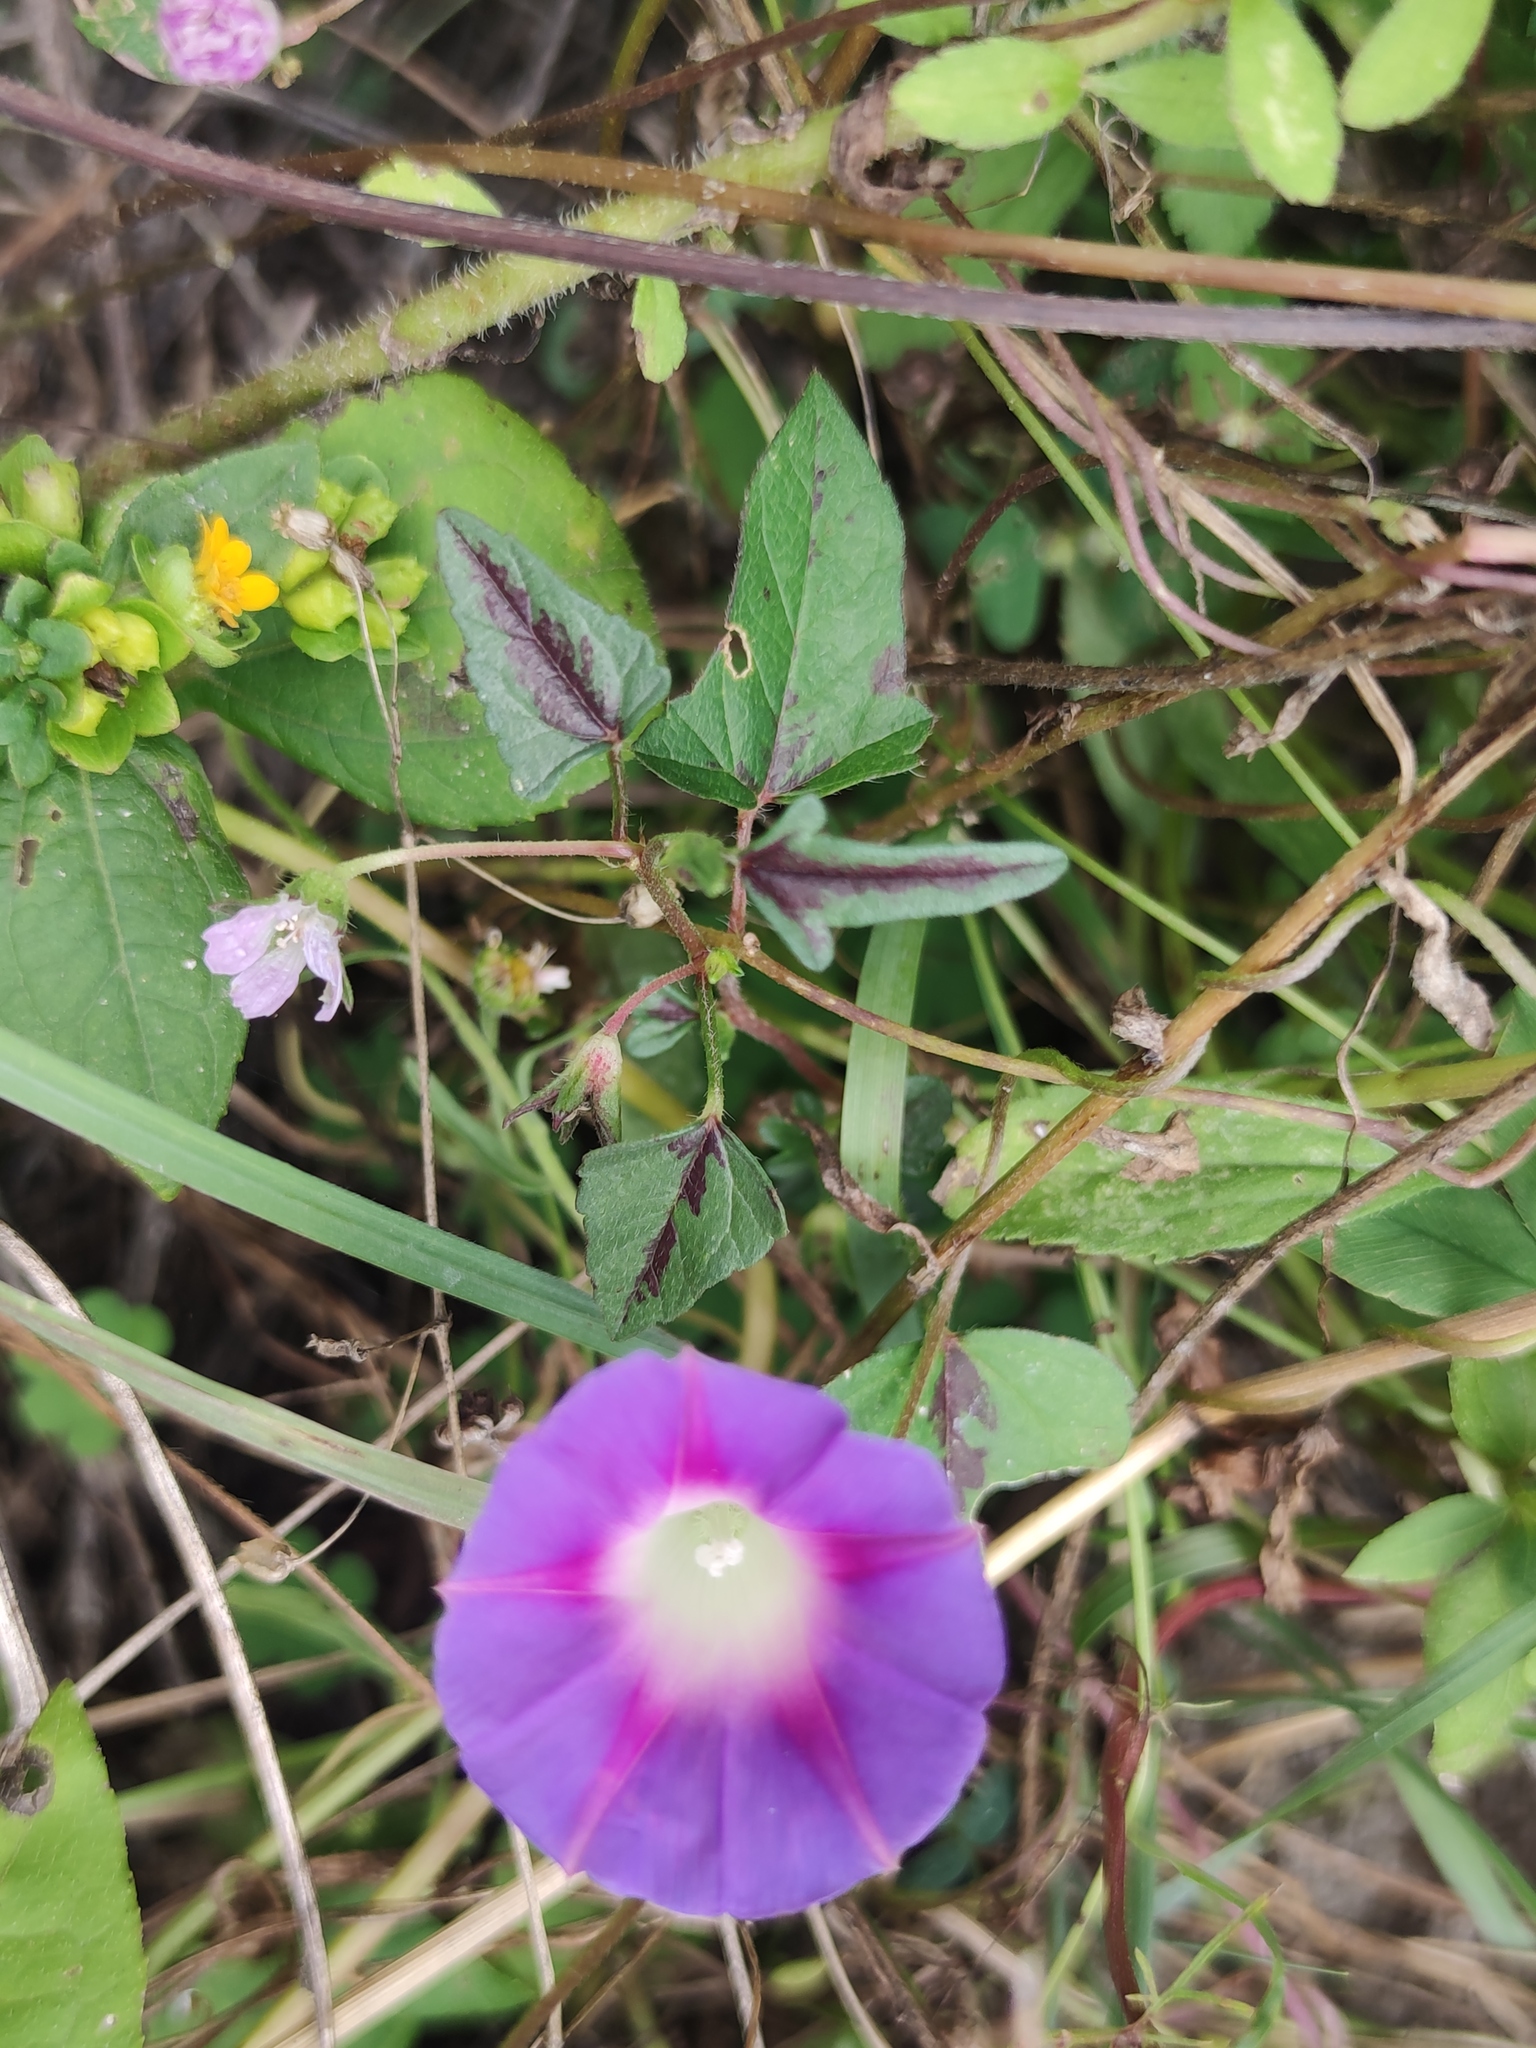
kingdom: Plantae
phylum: Tracheophyta
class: Magnoliopsida
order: Solanales
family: Convolvulaceae
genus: Ipomoea
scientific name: Ipomoea purpurea
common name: Common morning-glory
